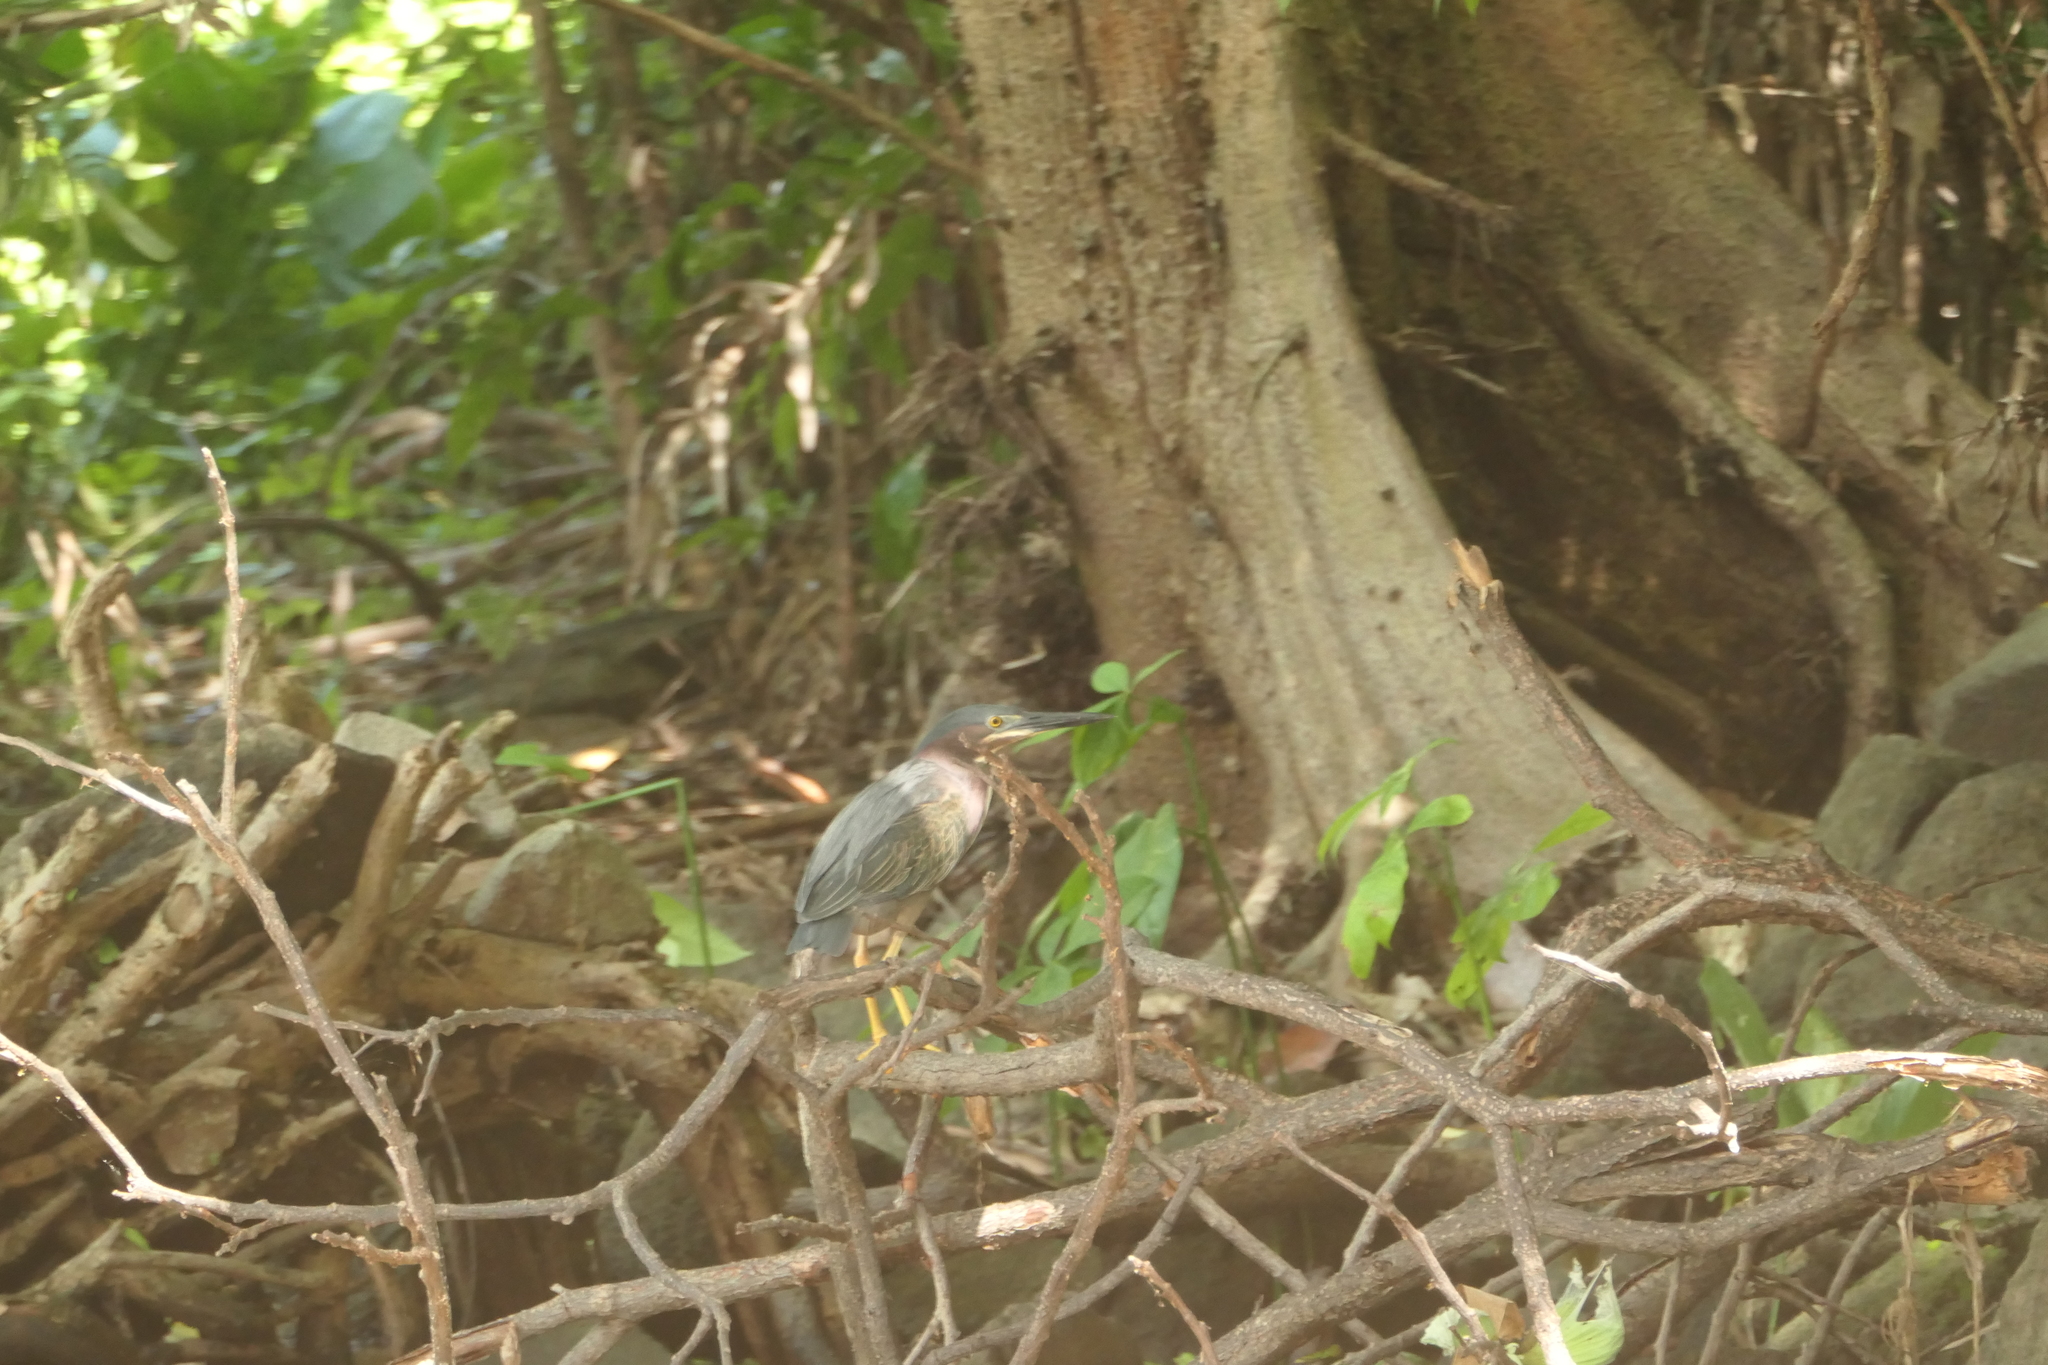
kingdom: Animalia
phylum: Chordata
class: Aves
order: Pelecaniformes
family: Ardeidae
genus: Butorides
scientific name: Butorides virescens
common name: Green heron
